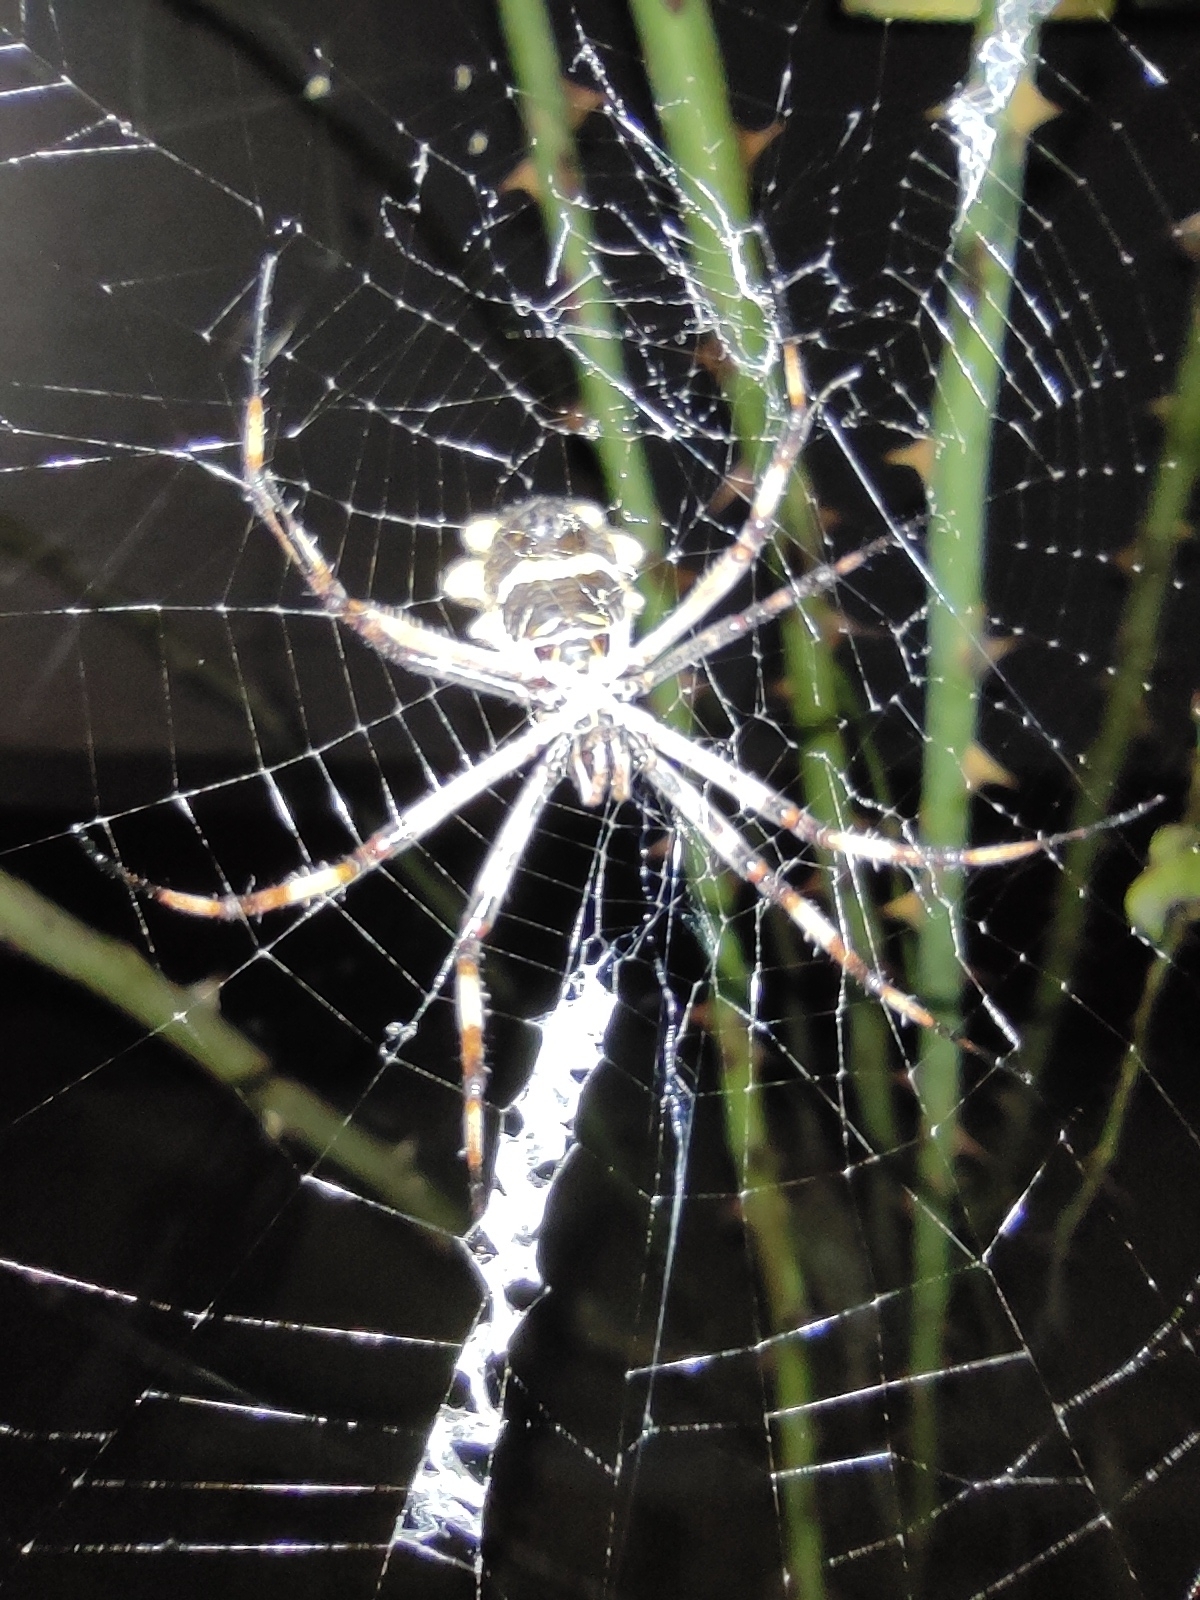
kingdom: Animalia
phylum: Arthropoda
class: Arachnida
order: Araneae
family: Araneidae
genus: Argiope
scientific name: Argiope argentata
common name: Orb weavers
